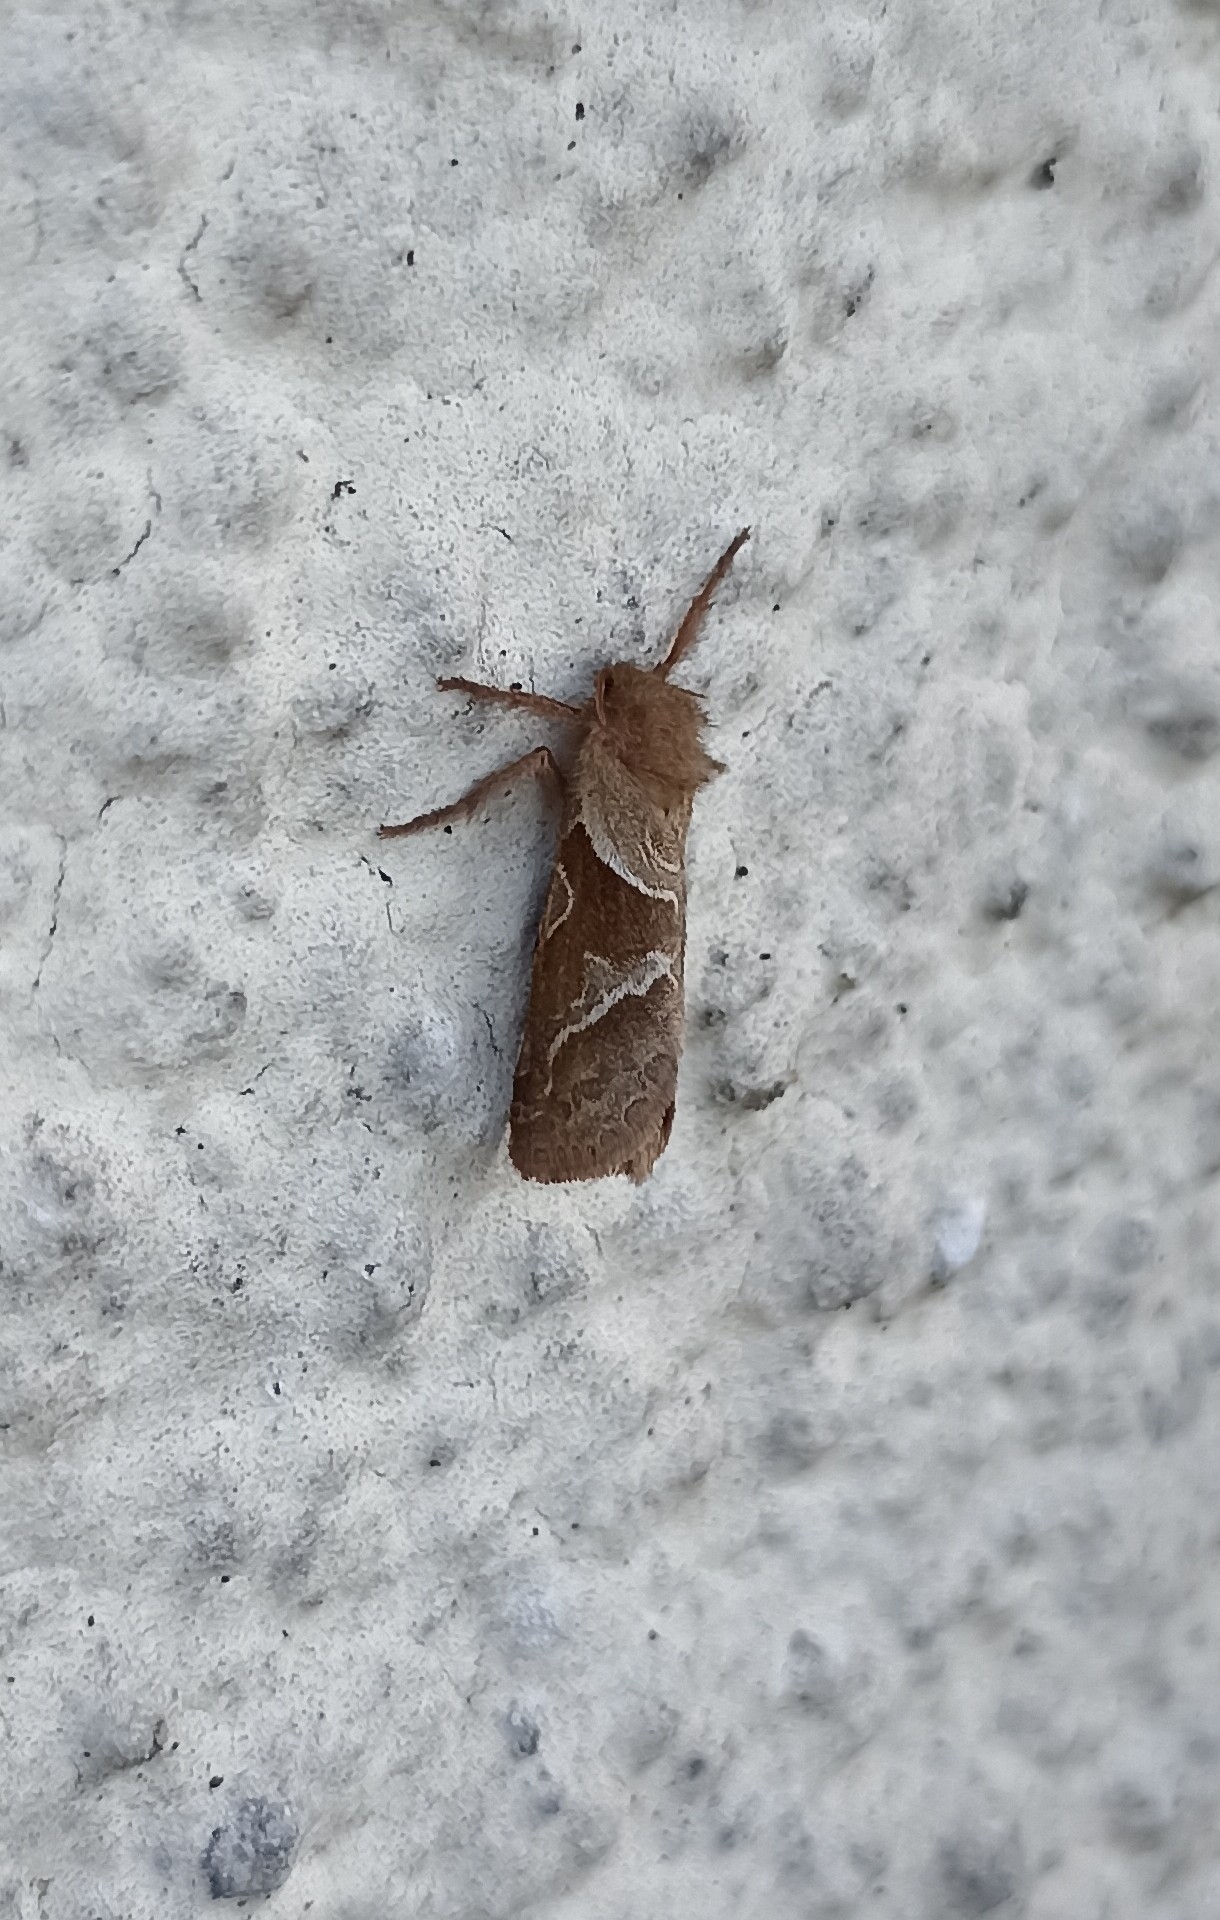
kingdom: Animalia
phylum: Arthropoda
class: Insecta
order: Lepidoptera
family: Hepialidae
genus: Triodia
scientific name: Triodia sylvina
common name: Orange swift
